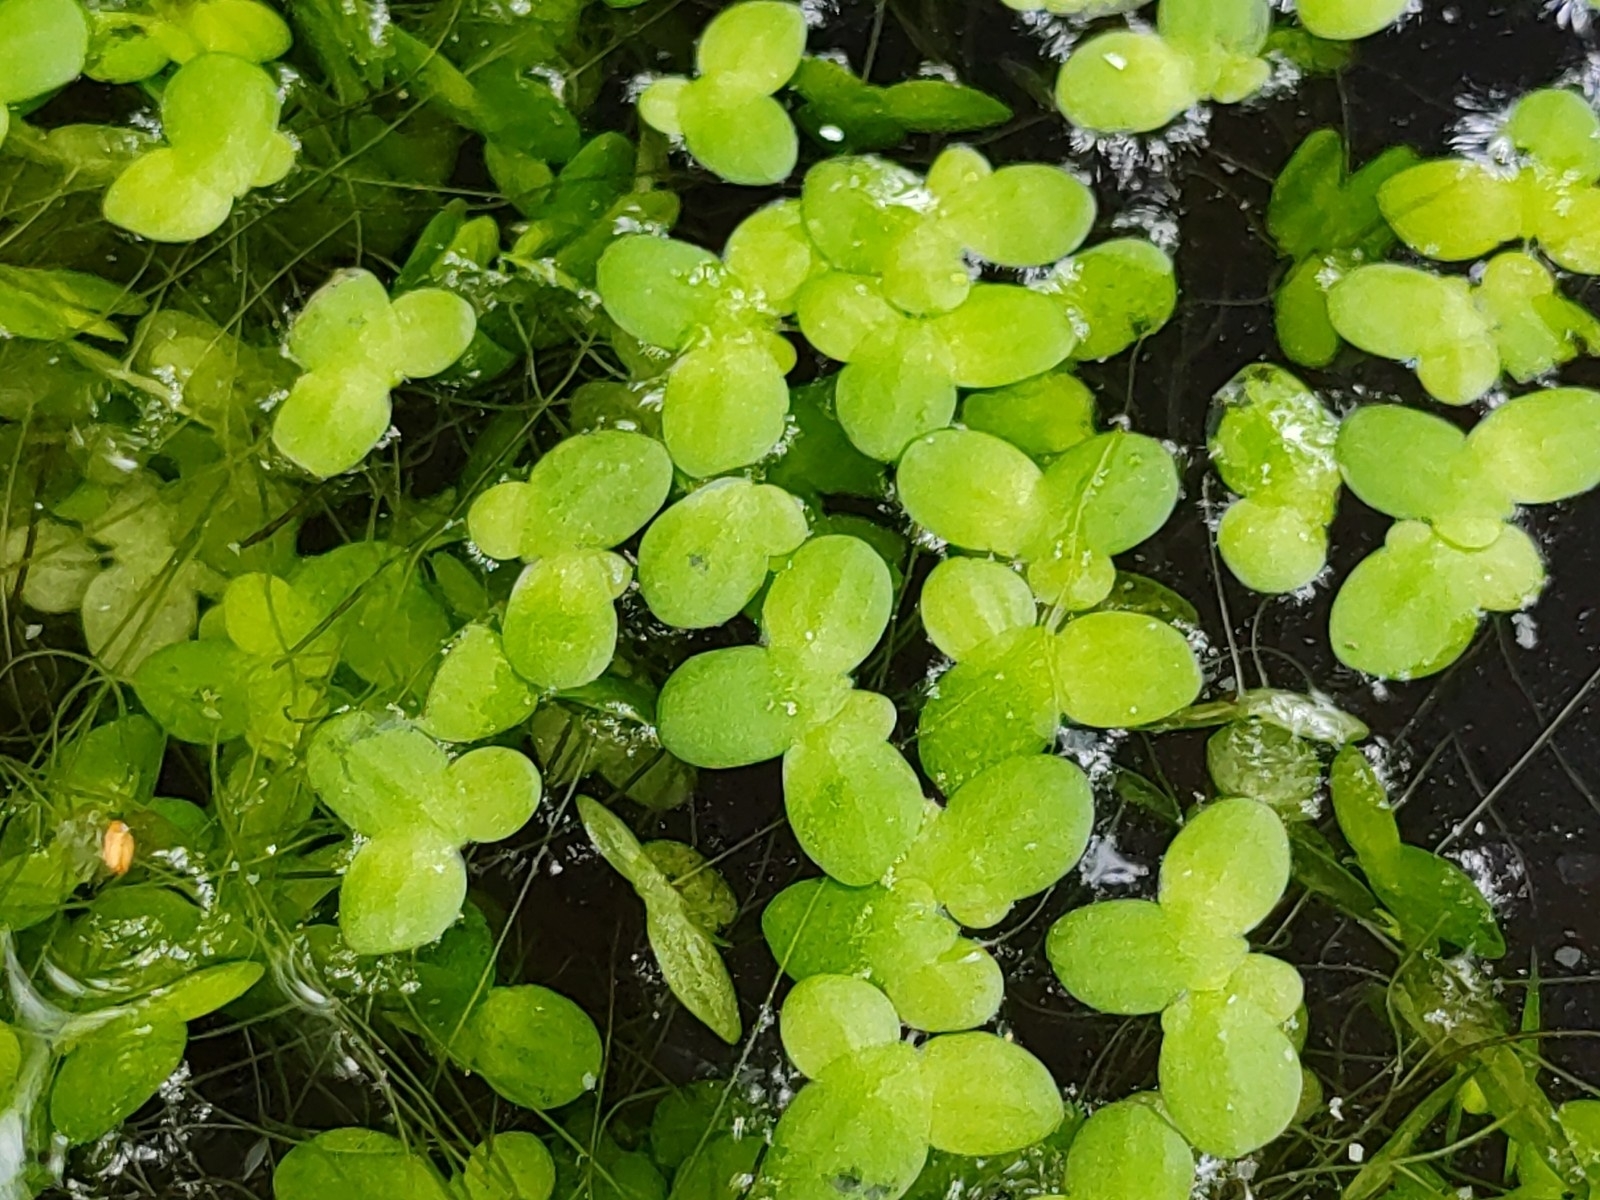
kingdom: Plantae
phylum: Tracheophyta
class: Liliopsida
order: Alismatales
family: Araceae
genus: Lemna
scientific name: Lemna minor
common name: Common duckweed
